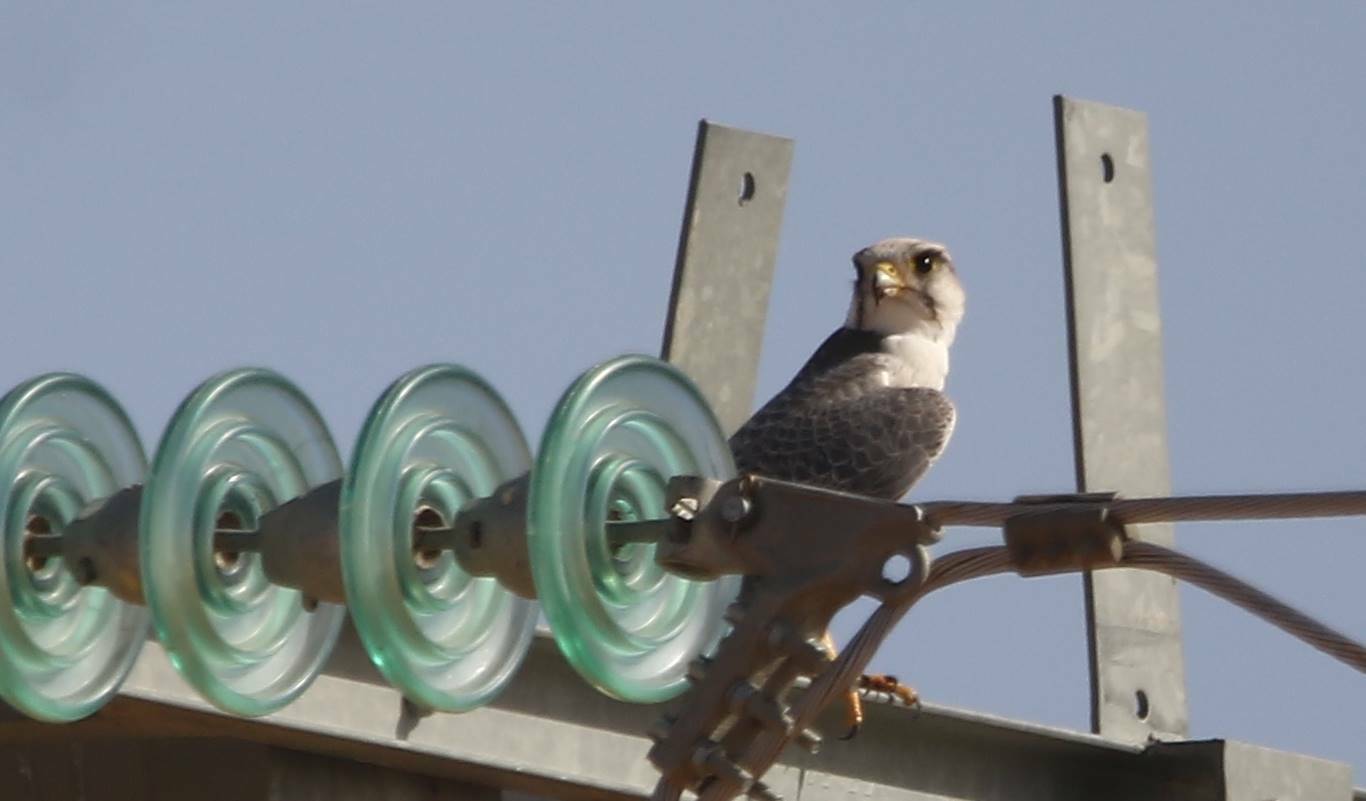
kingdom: Animalia
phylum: Chordata
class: Aves
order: Falconiformes
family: Falconidae
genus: Falco
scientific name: Falco biarmicus
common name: Lanner falcon
